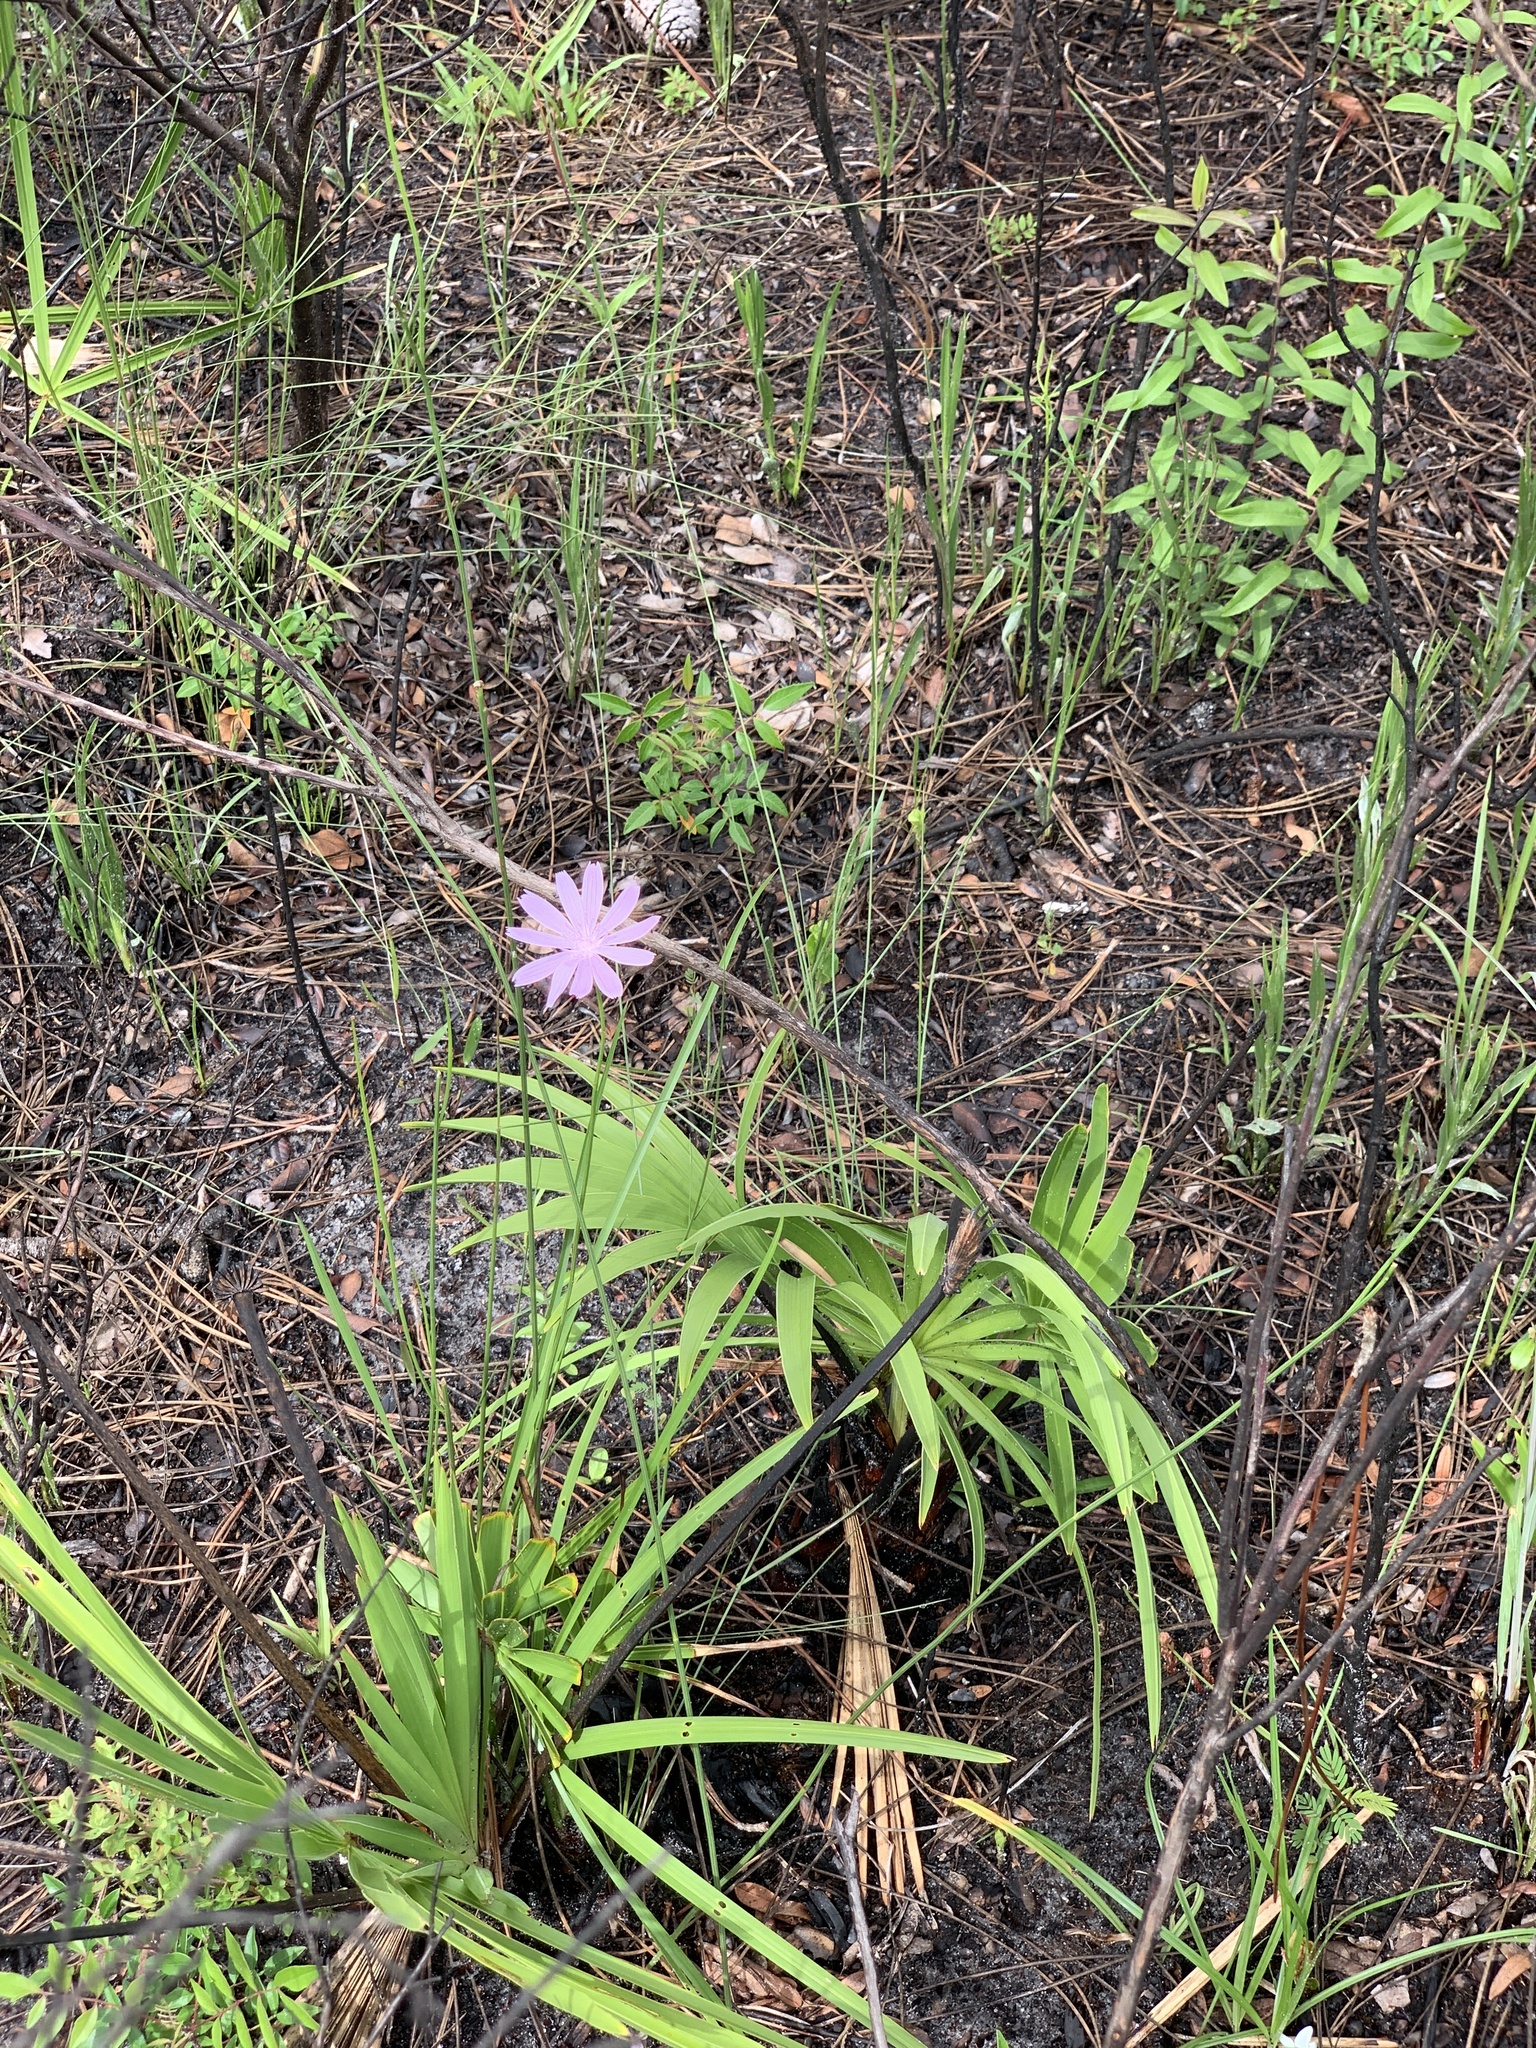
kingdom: Plantae
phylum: Tracheophyta
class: Magnoliopsida
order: Asterales
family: Asteraceae
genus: Lygodesmia
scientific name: Lygodesmia aphylla
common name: Rose-rush
